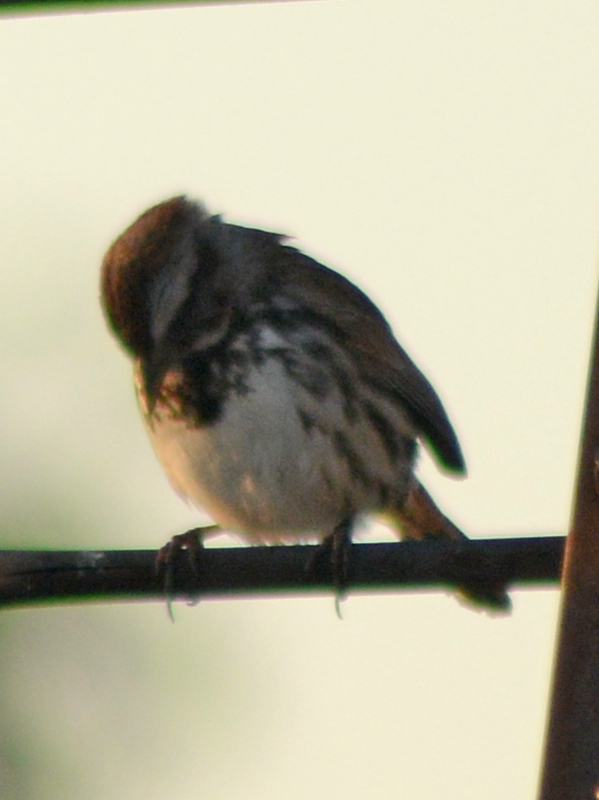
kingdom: Animalia
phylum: Chordata
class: Aves
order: Passeriformes
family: Passerellidae
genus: Melospiza
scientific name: Melospiza melodia
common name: Song sparrow
